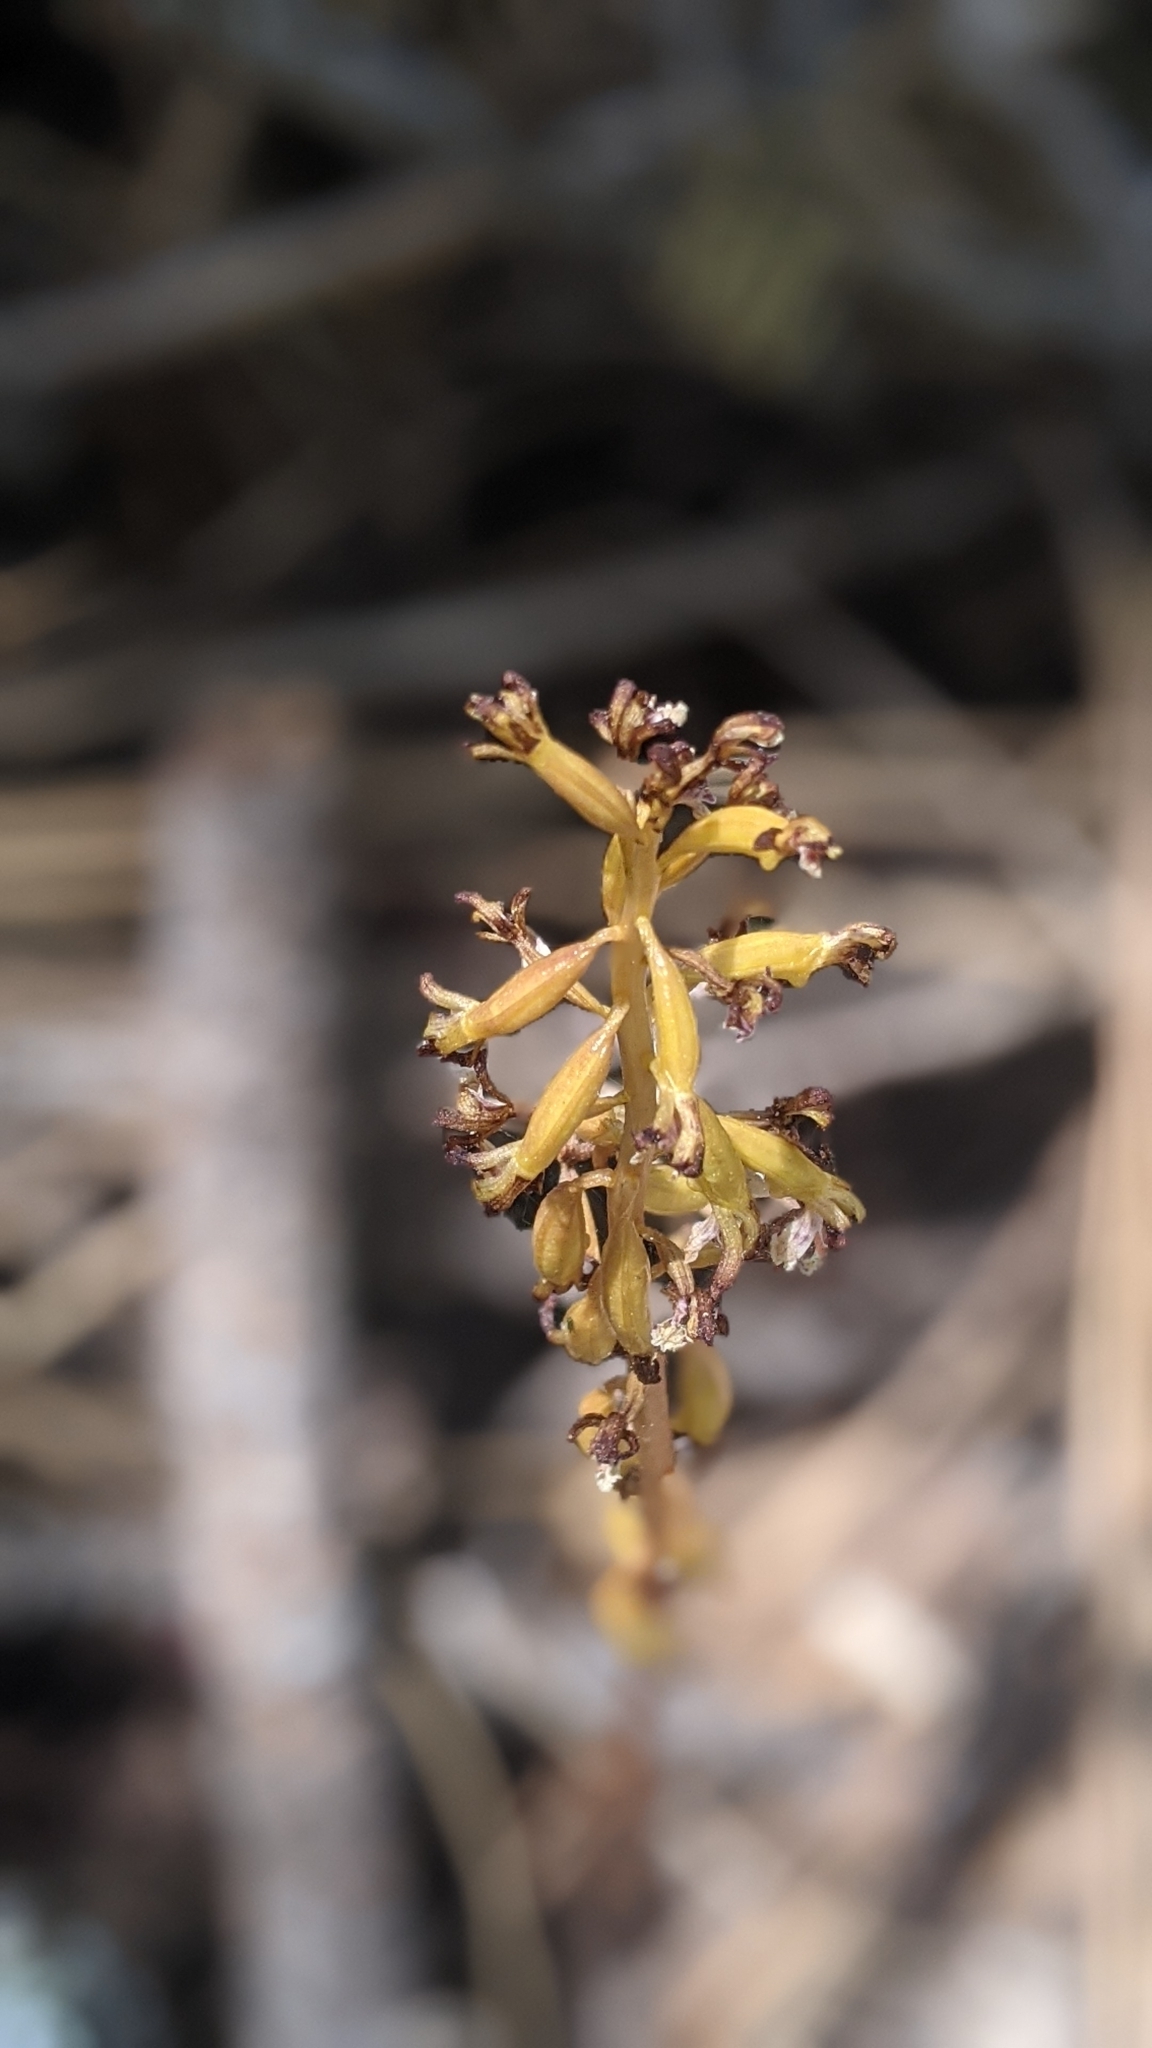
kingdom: Plantae
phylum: Tracheophyta
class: Liliopsida
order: Asparagales
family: Orchidaceae
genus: Corallorhiza
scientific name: Corallorhiza maculata
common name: Spotted coralroot
